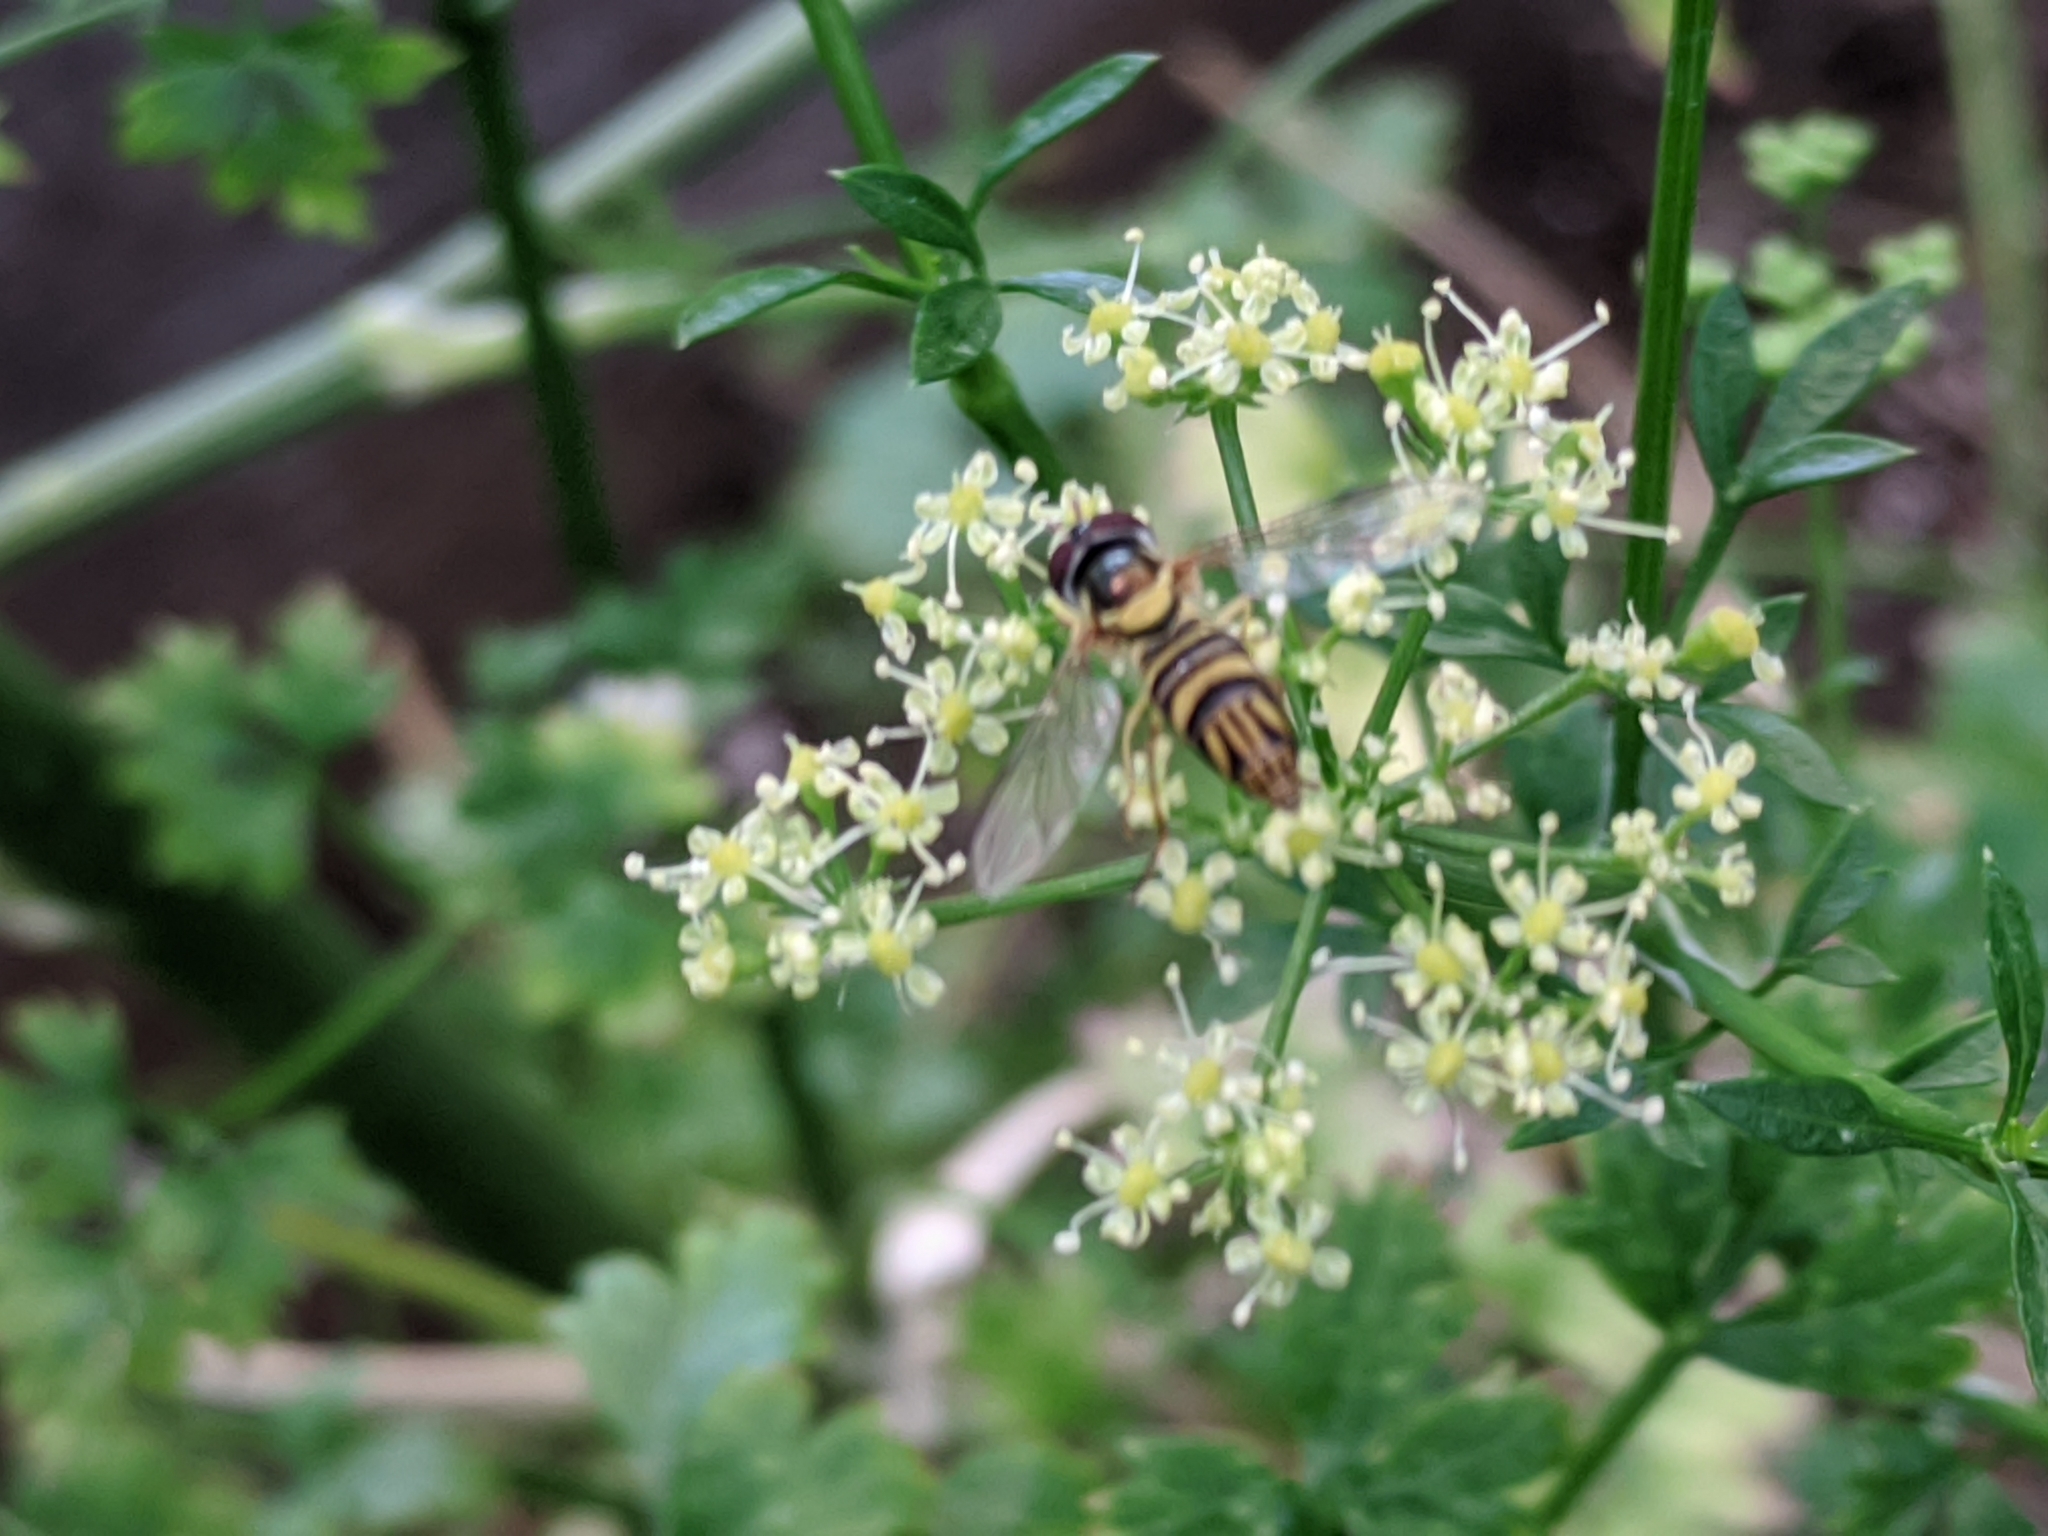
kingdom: Animalia
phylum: Arthropoda
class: Insecta
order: Diptera
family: Syrphidae
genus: Allograpta
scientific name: Allograpta obliqua
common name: Common oblique syrphid
